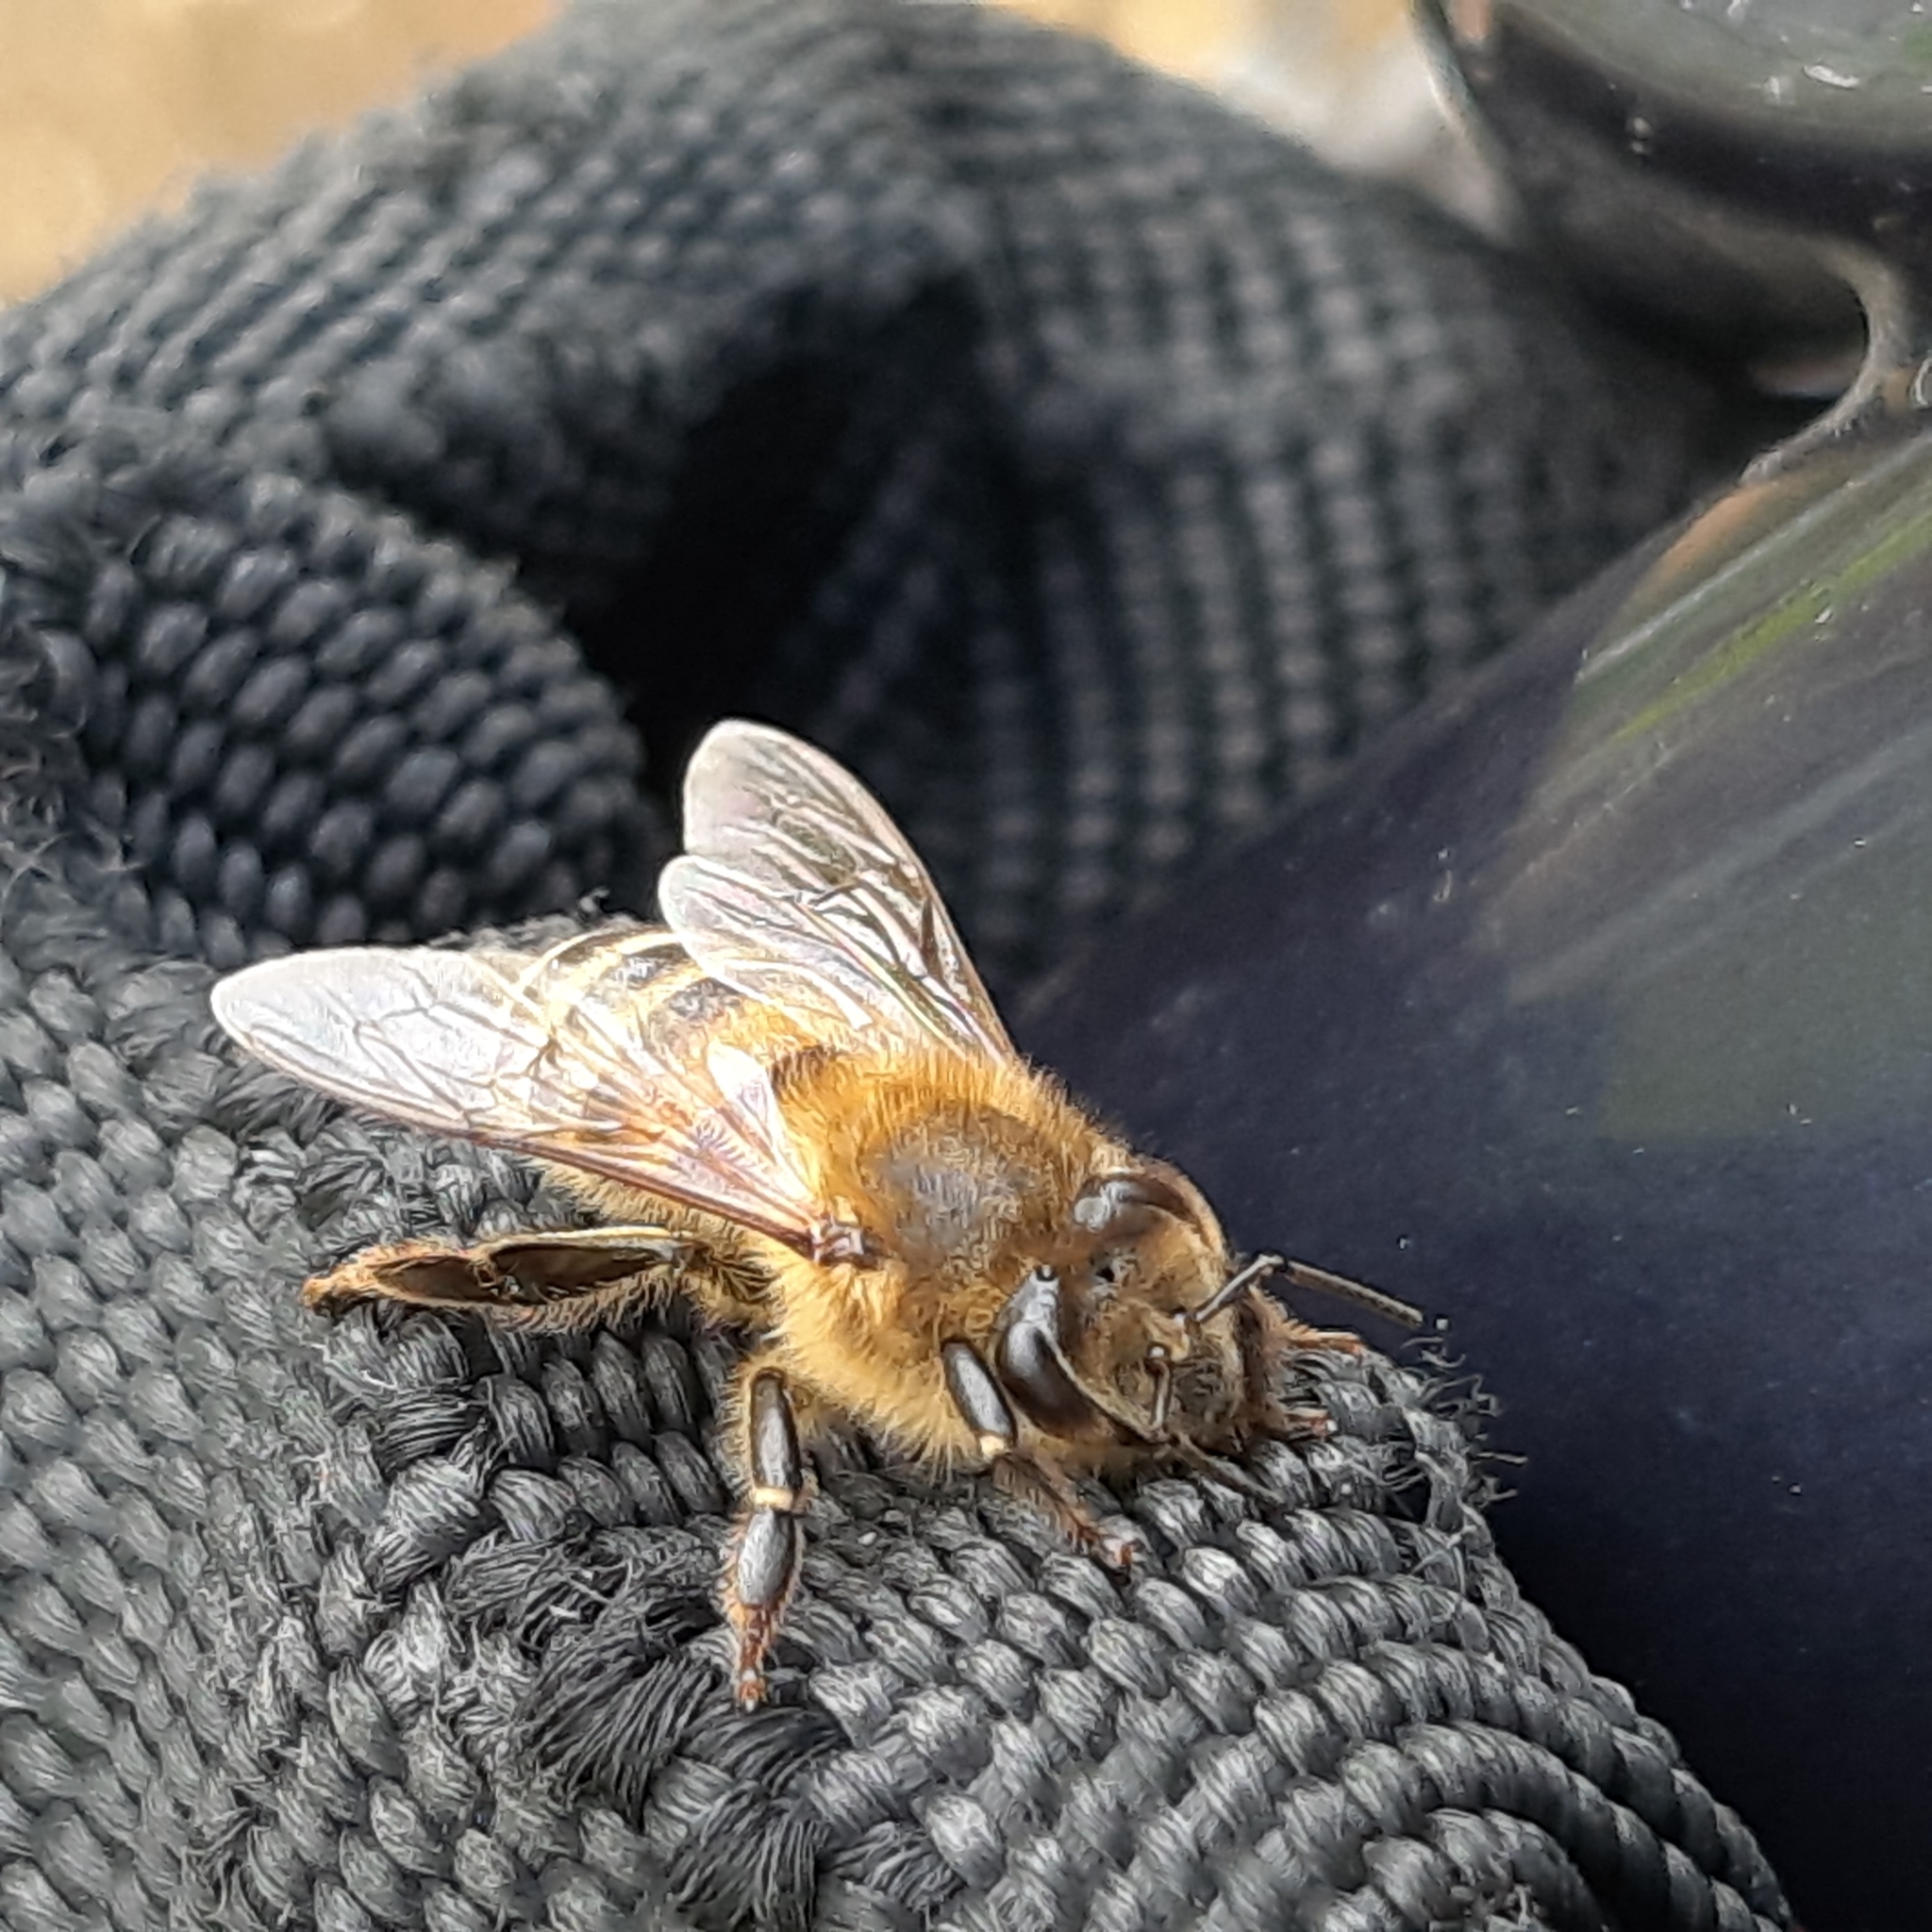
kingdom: Animalia
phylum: Arthropoda
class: Insecta
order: Hymenoptera
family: Apidae
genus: Apis
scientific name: Apis mellifera
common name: Honey bee
